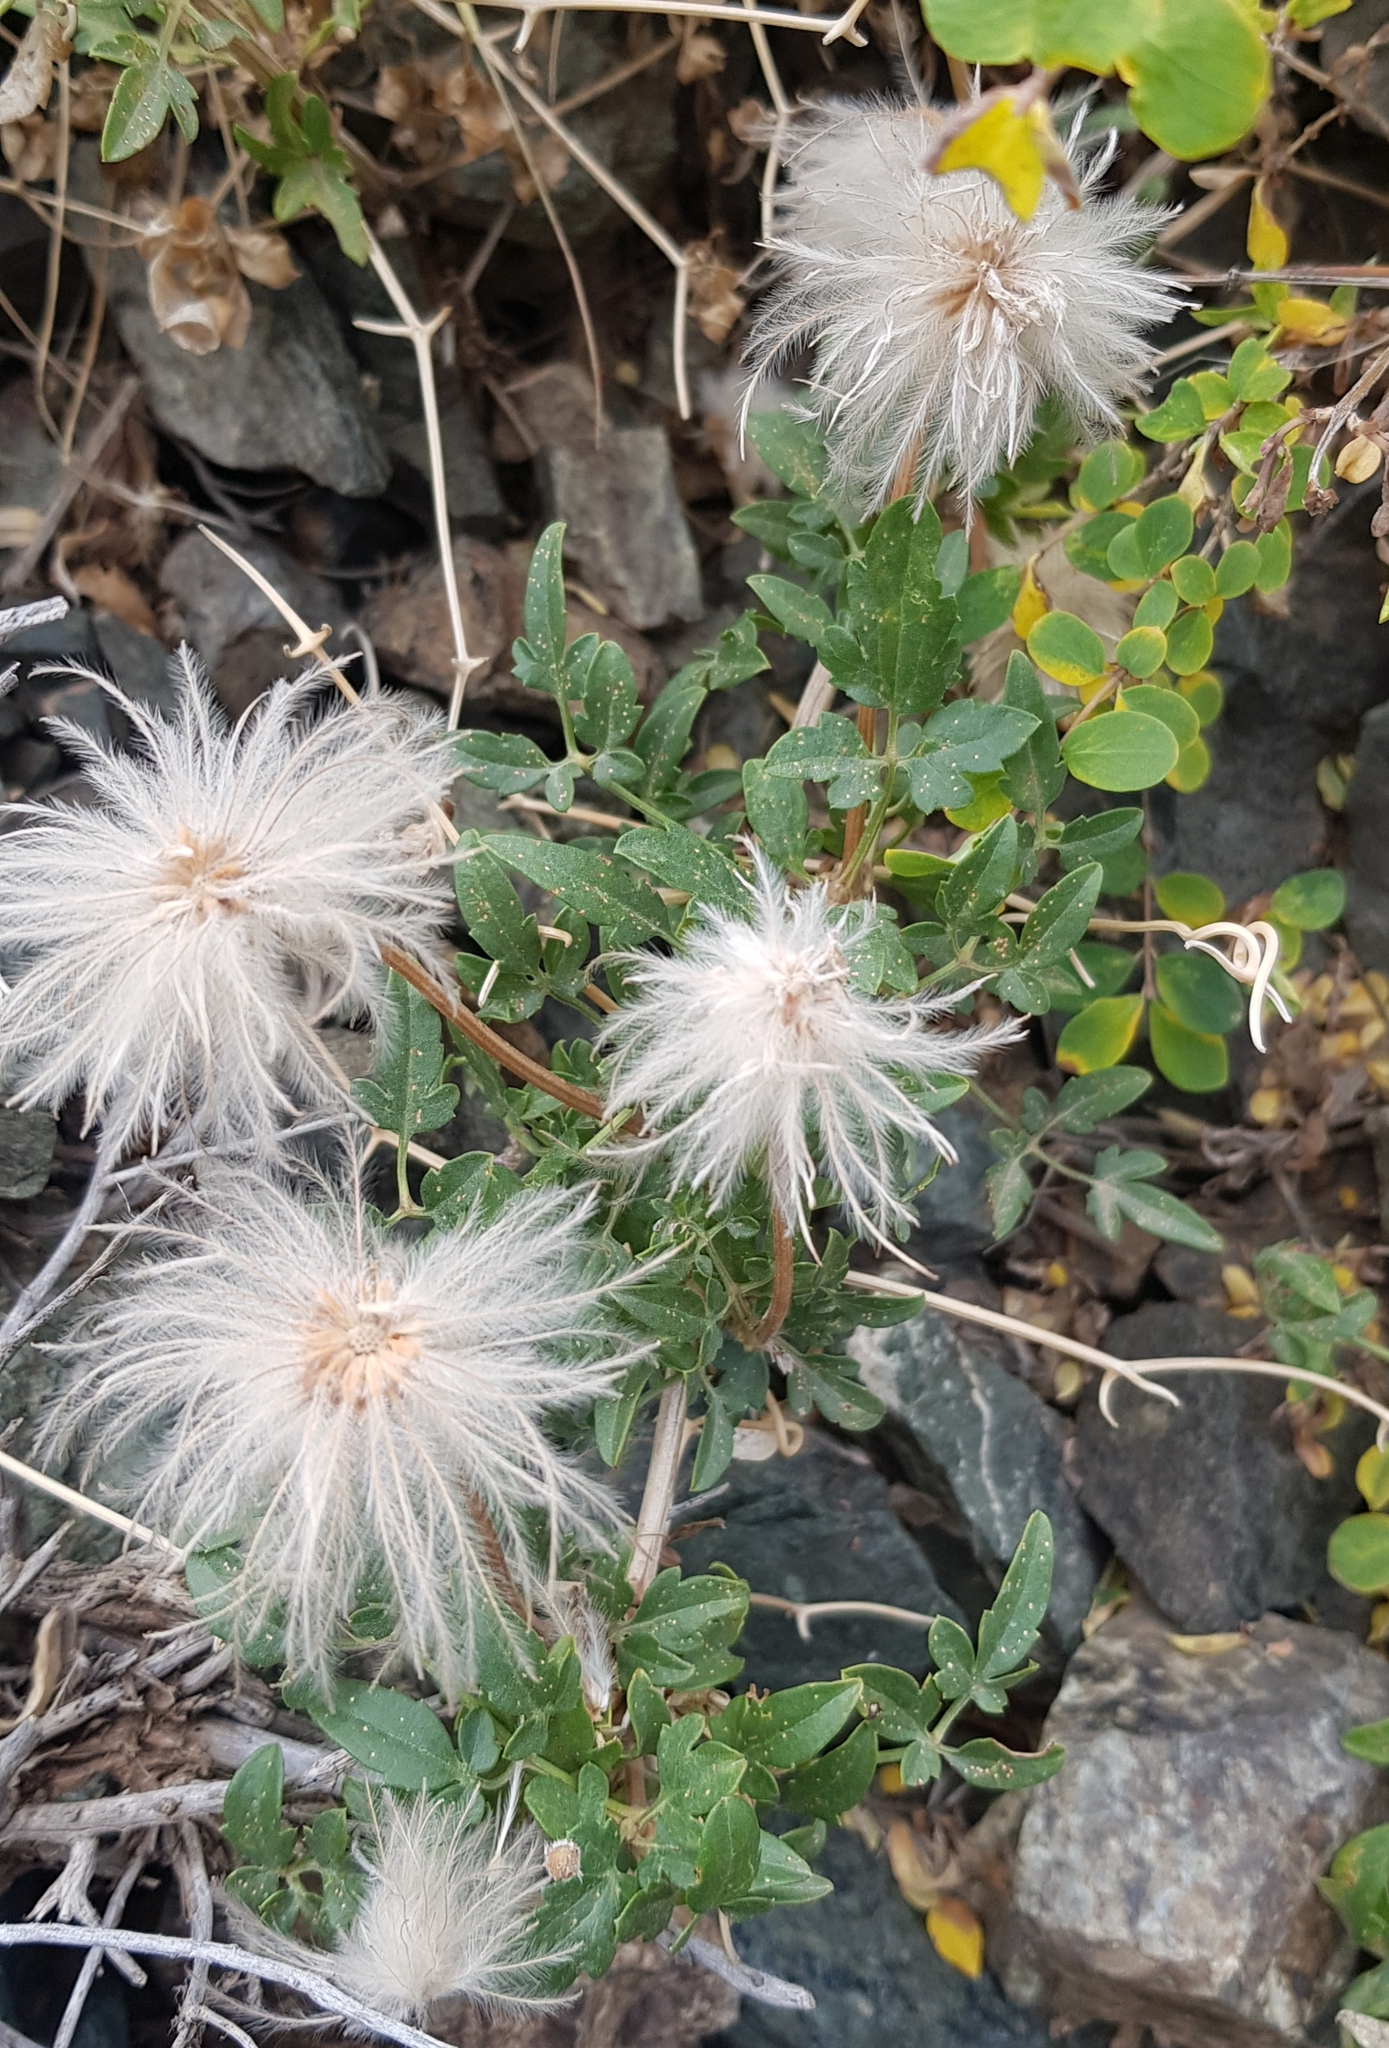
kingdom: Plantae
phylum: Tracheophyta
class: Magnoliopsida
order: Ranunculales
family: Ranunculaceae
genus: Clematis
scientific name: Clematis tangutica
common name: Orange-peel clematis
